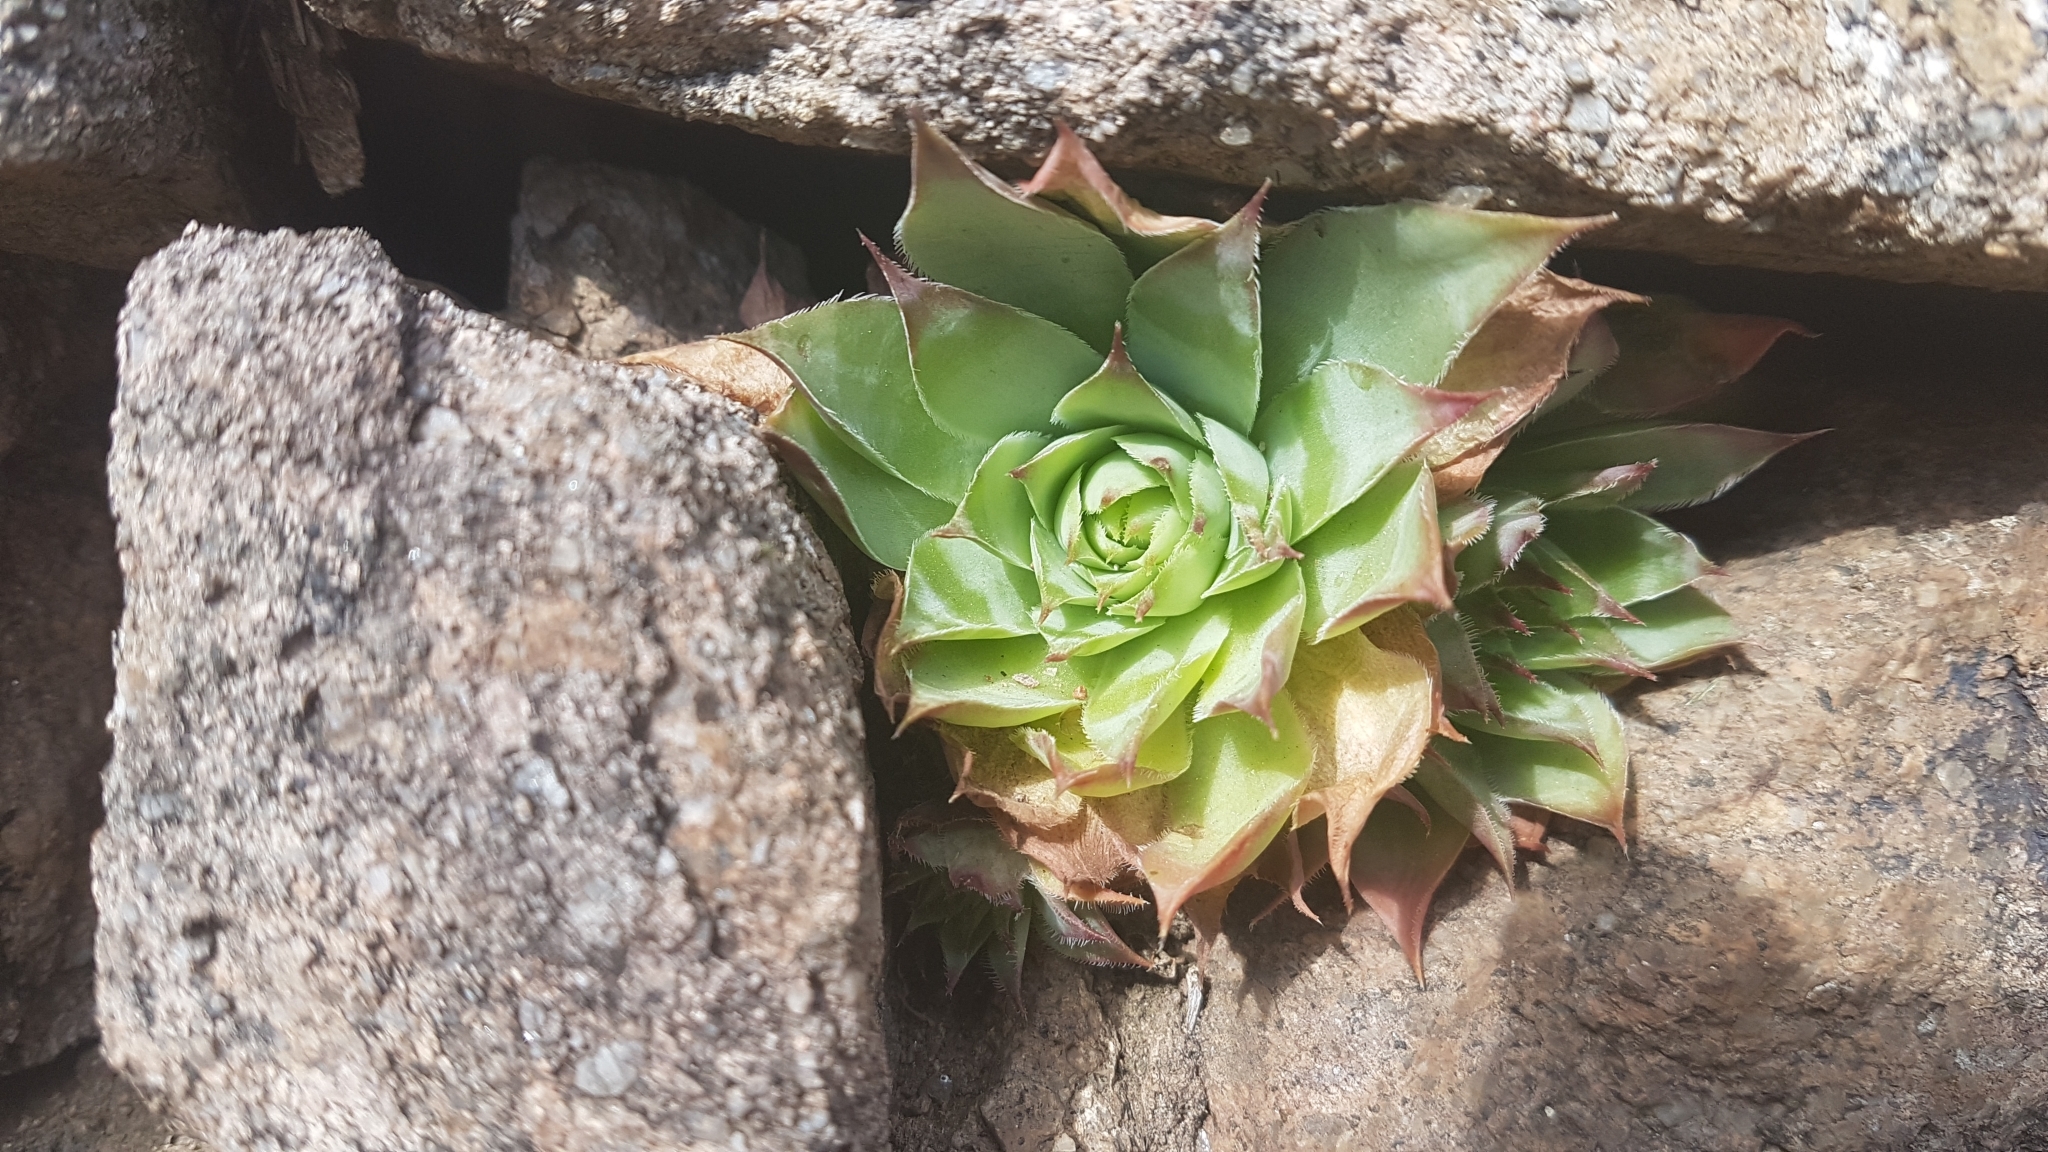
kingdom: Plantae
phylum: Tracheophyta
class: Magnoliopsida
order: Saxifragales
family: Crassulaceae
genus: Sempervivum
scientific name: Sempervivum tectorum
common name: House-leek
